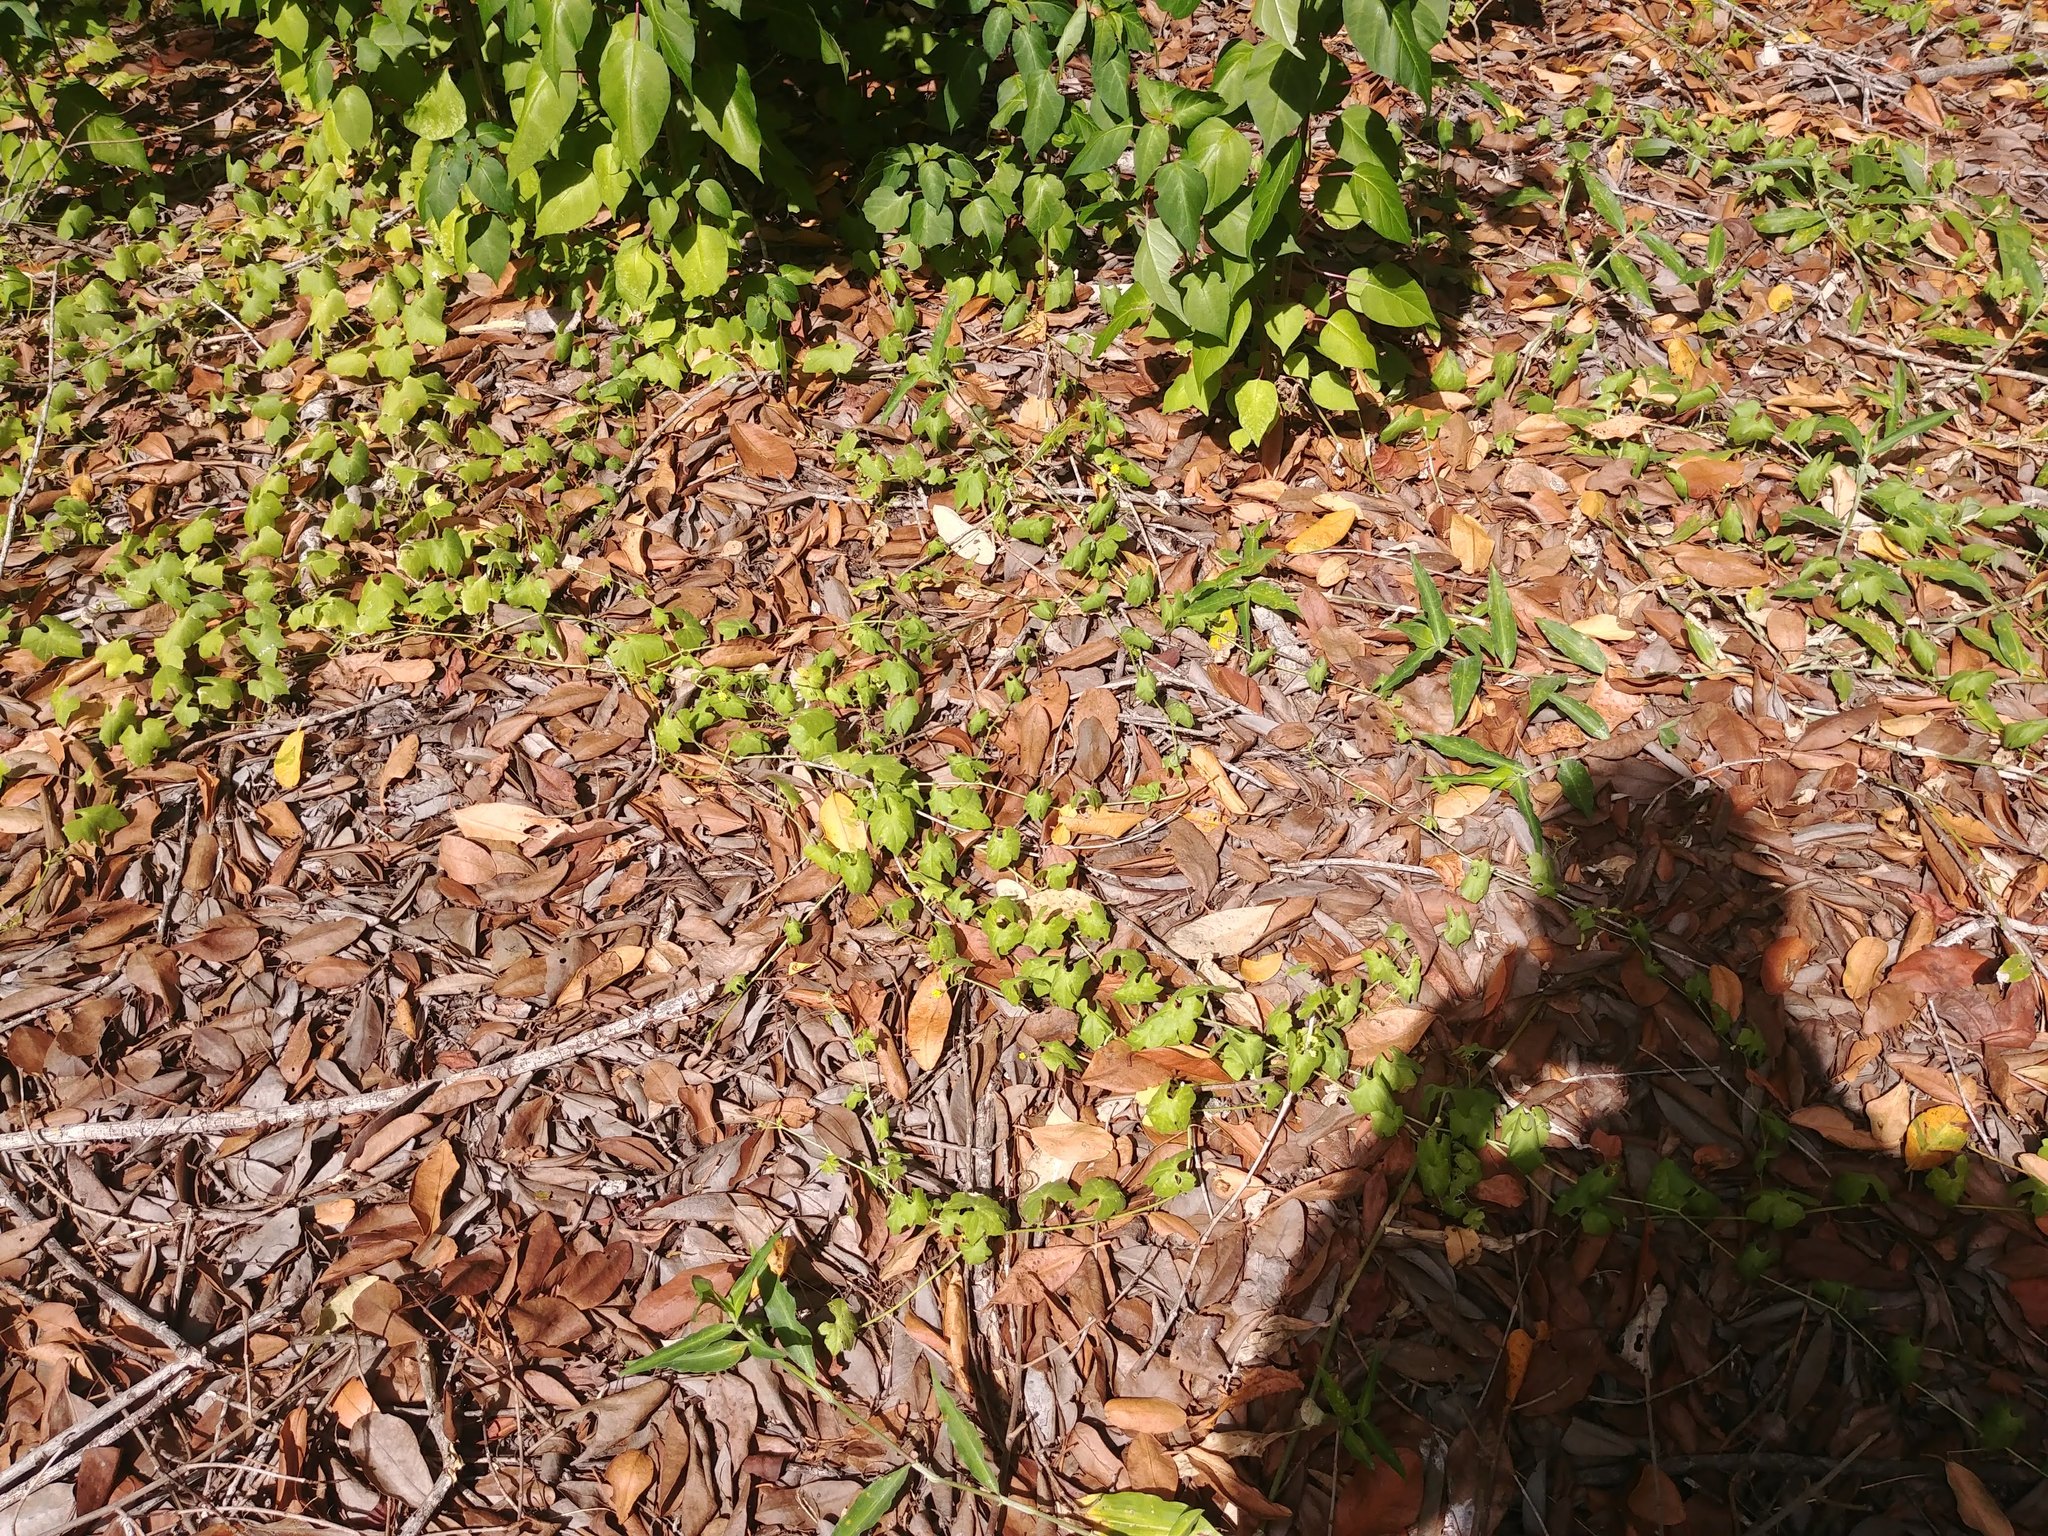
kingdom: Plantae
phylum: Tracheophyta
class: Magnoliopsida
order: Cucurbitales
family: Cucurbitaceae
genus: Momordica
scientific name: Momordica charantia
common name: Balsampear
